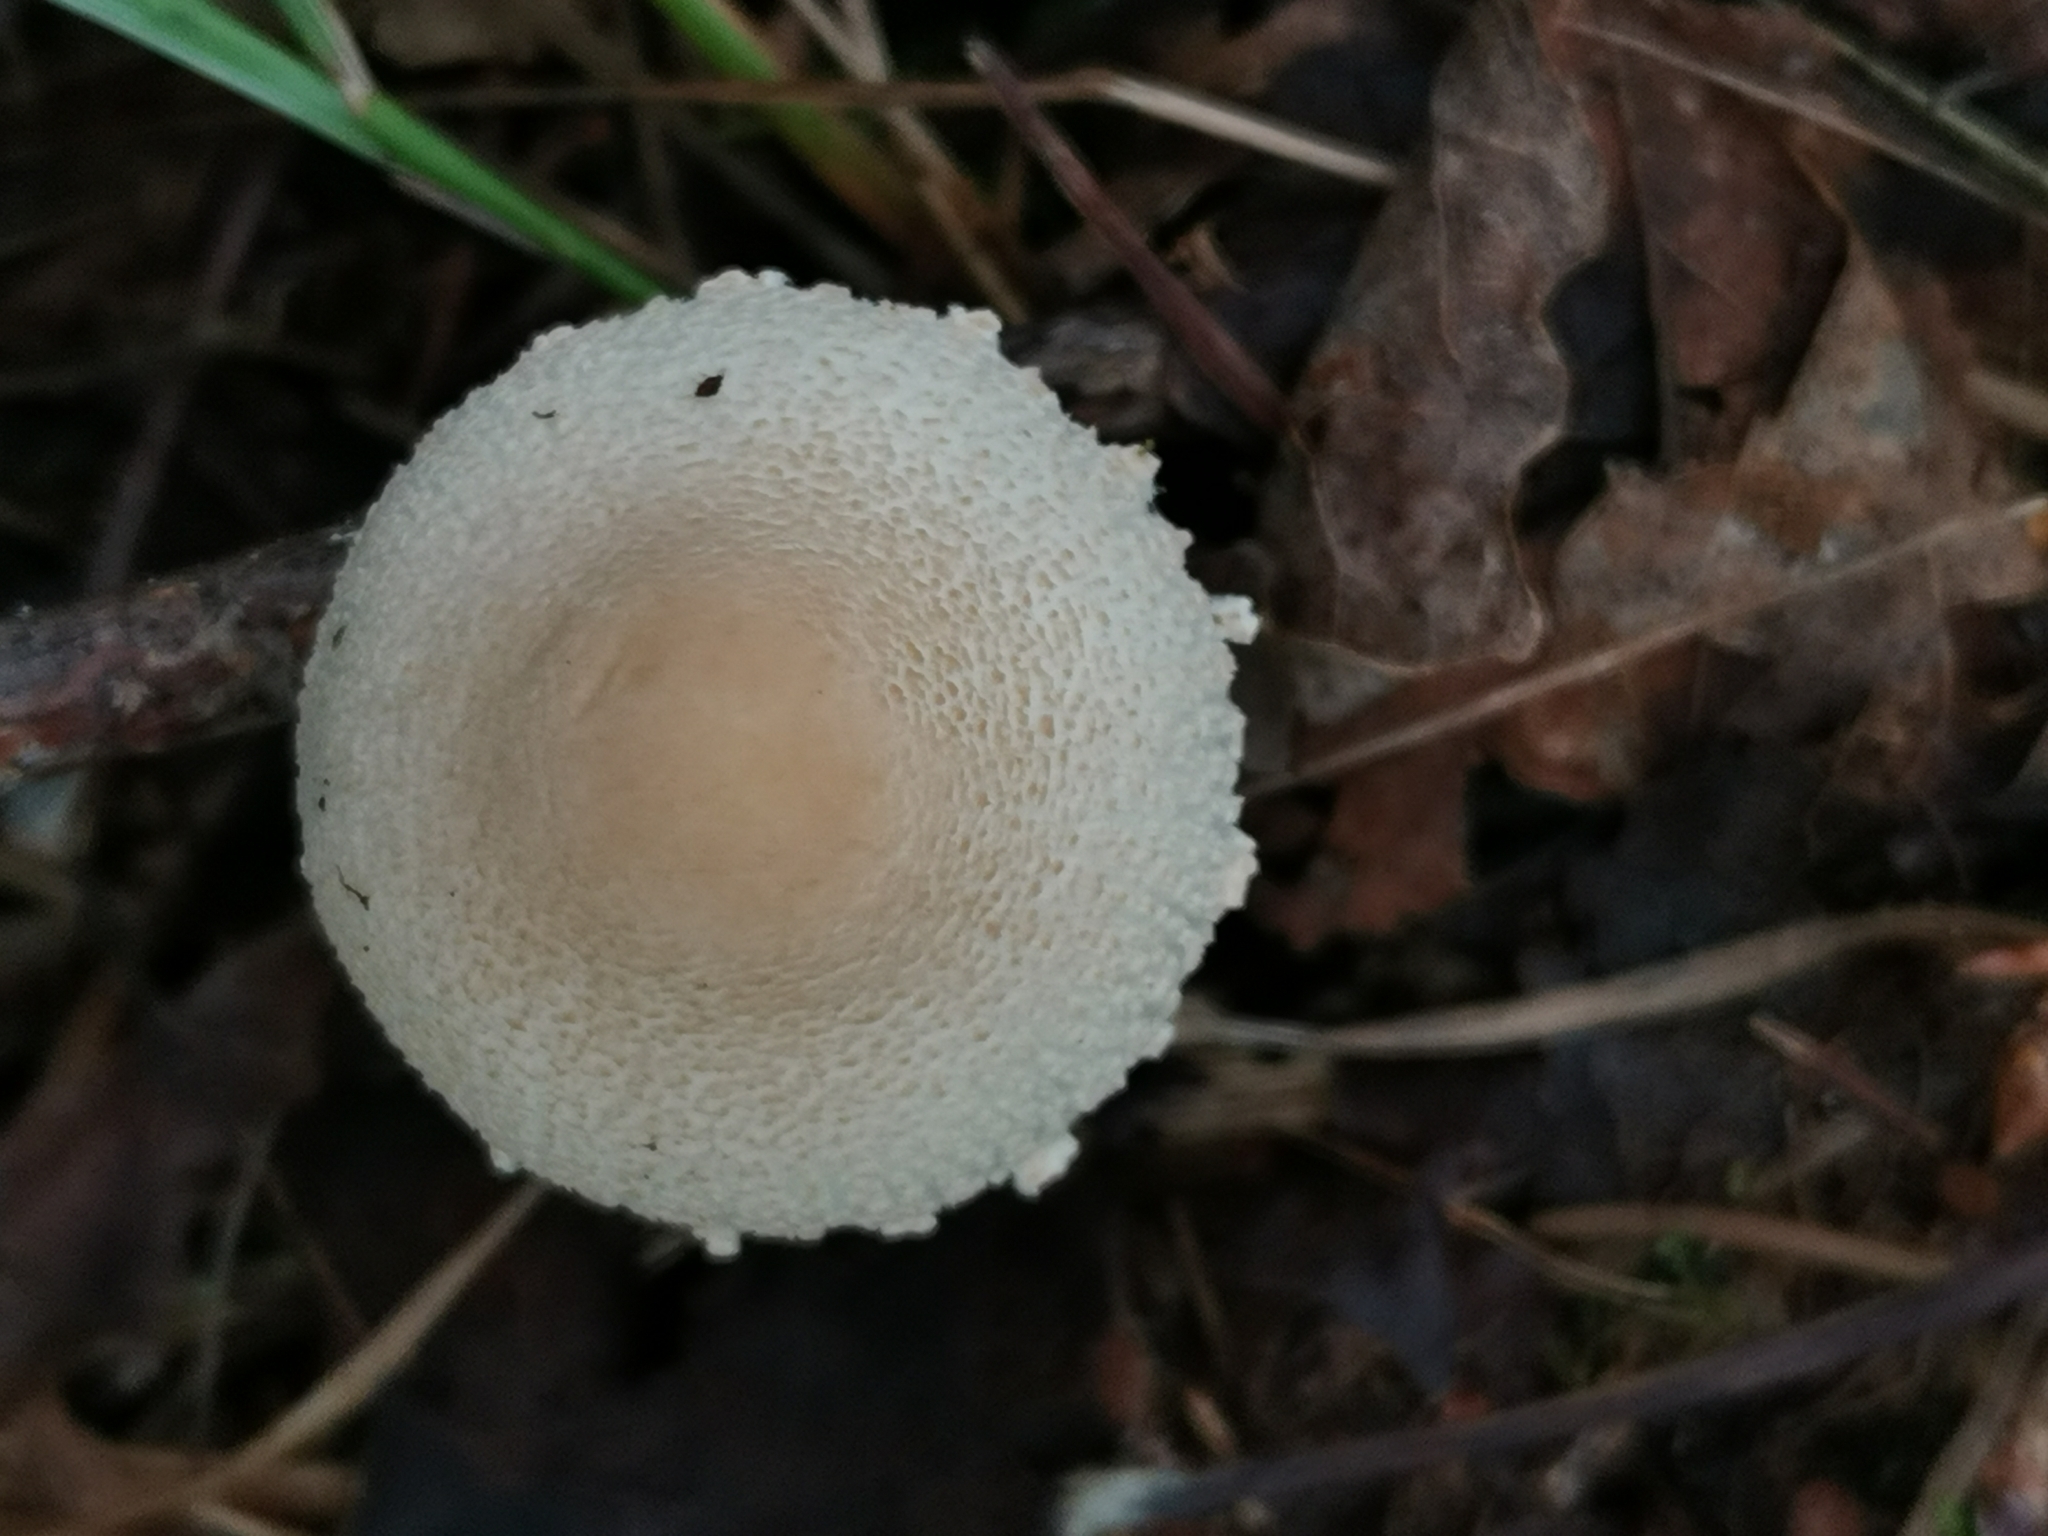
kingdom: Fungi
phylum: Basidiomycota
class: Agaricomycetes
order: Agaricales
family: Agaricaceae
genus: Lepiota
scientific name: Lepiota clypeolaria
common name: Shield dapperling
